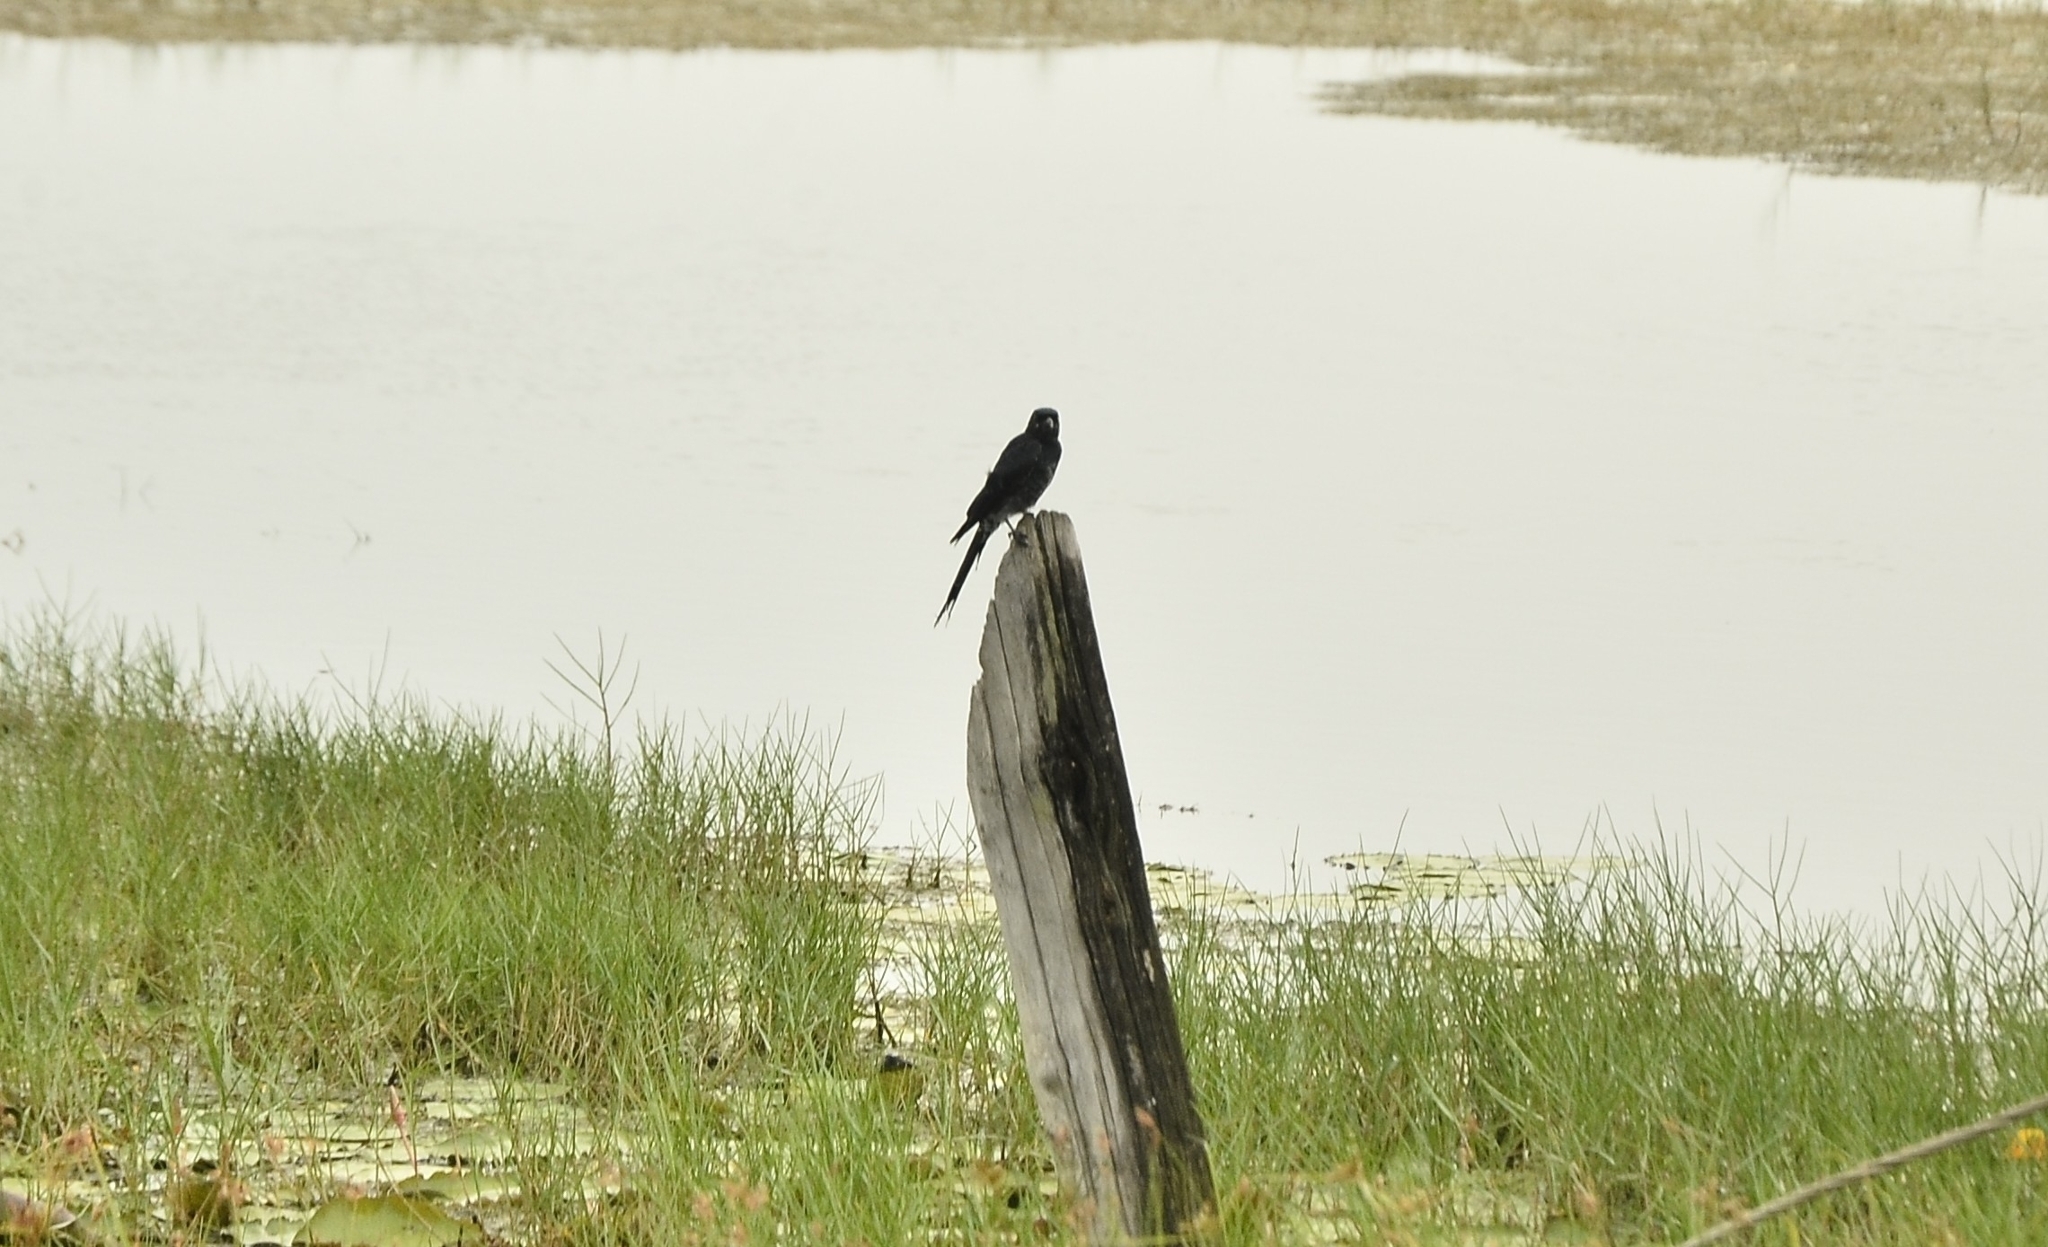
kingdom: Animalia
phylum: Chordata
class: Aves
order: Passeriformes
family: Dicruridae
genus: Dicrurus
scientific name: Dicrurus macrocercus
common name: Black drongo
